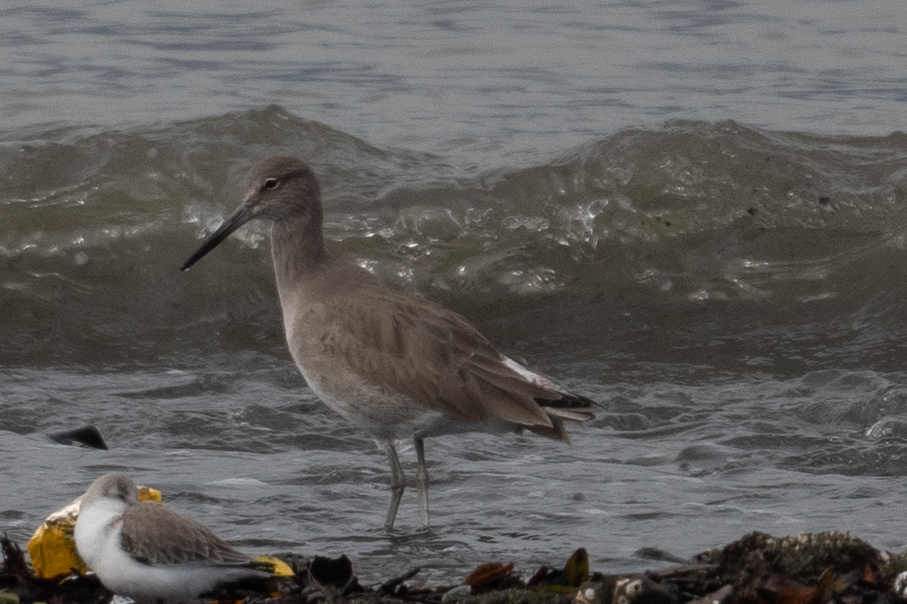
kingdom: Animalia
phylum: Chordata
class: Aves
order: Charadriiformes
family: Scolopacidae
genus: Tringa
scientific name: Tringa semipalmata
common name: Willet
